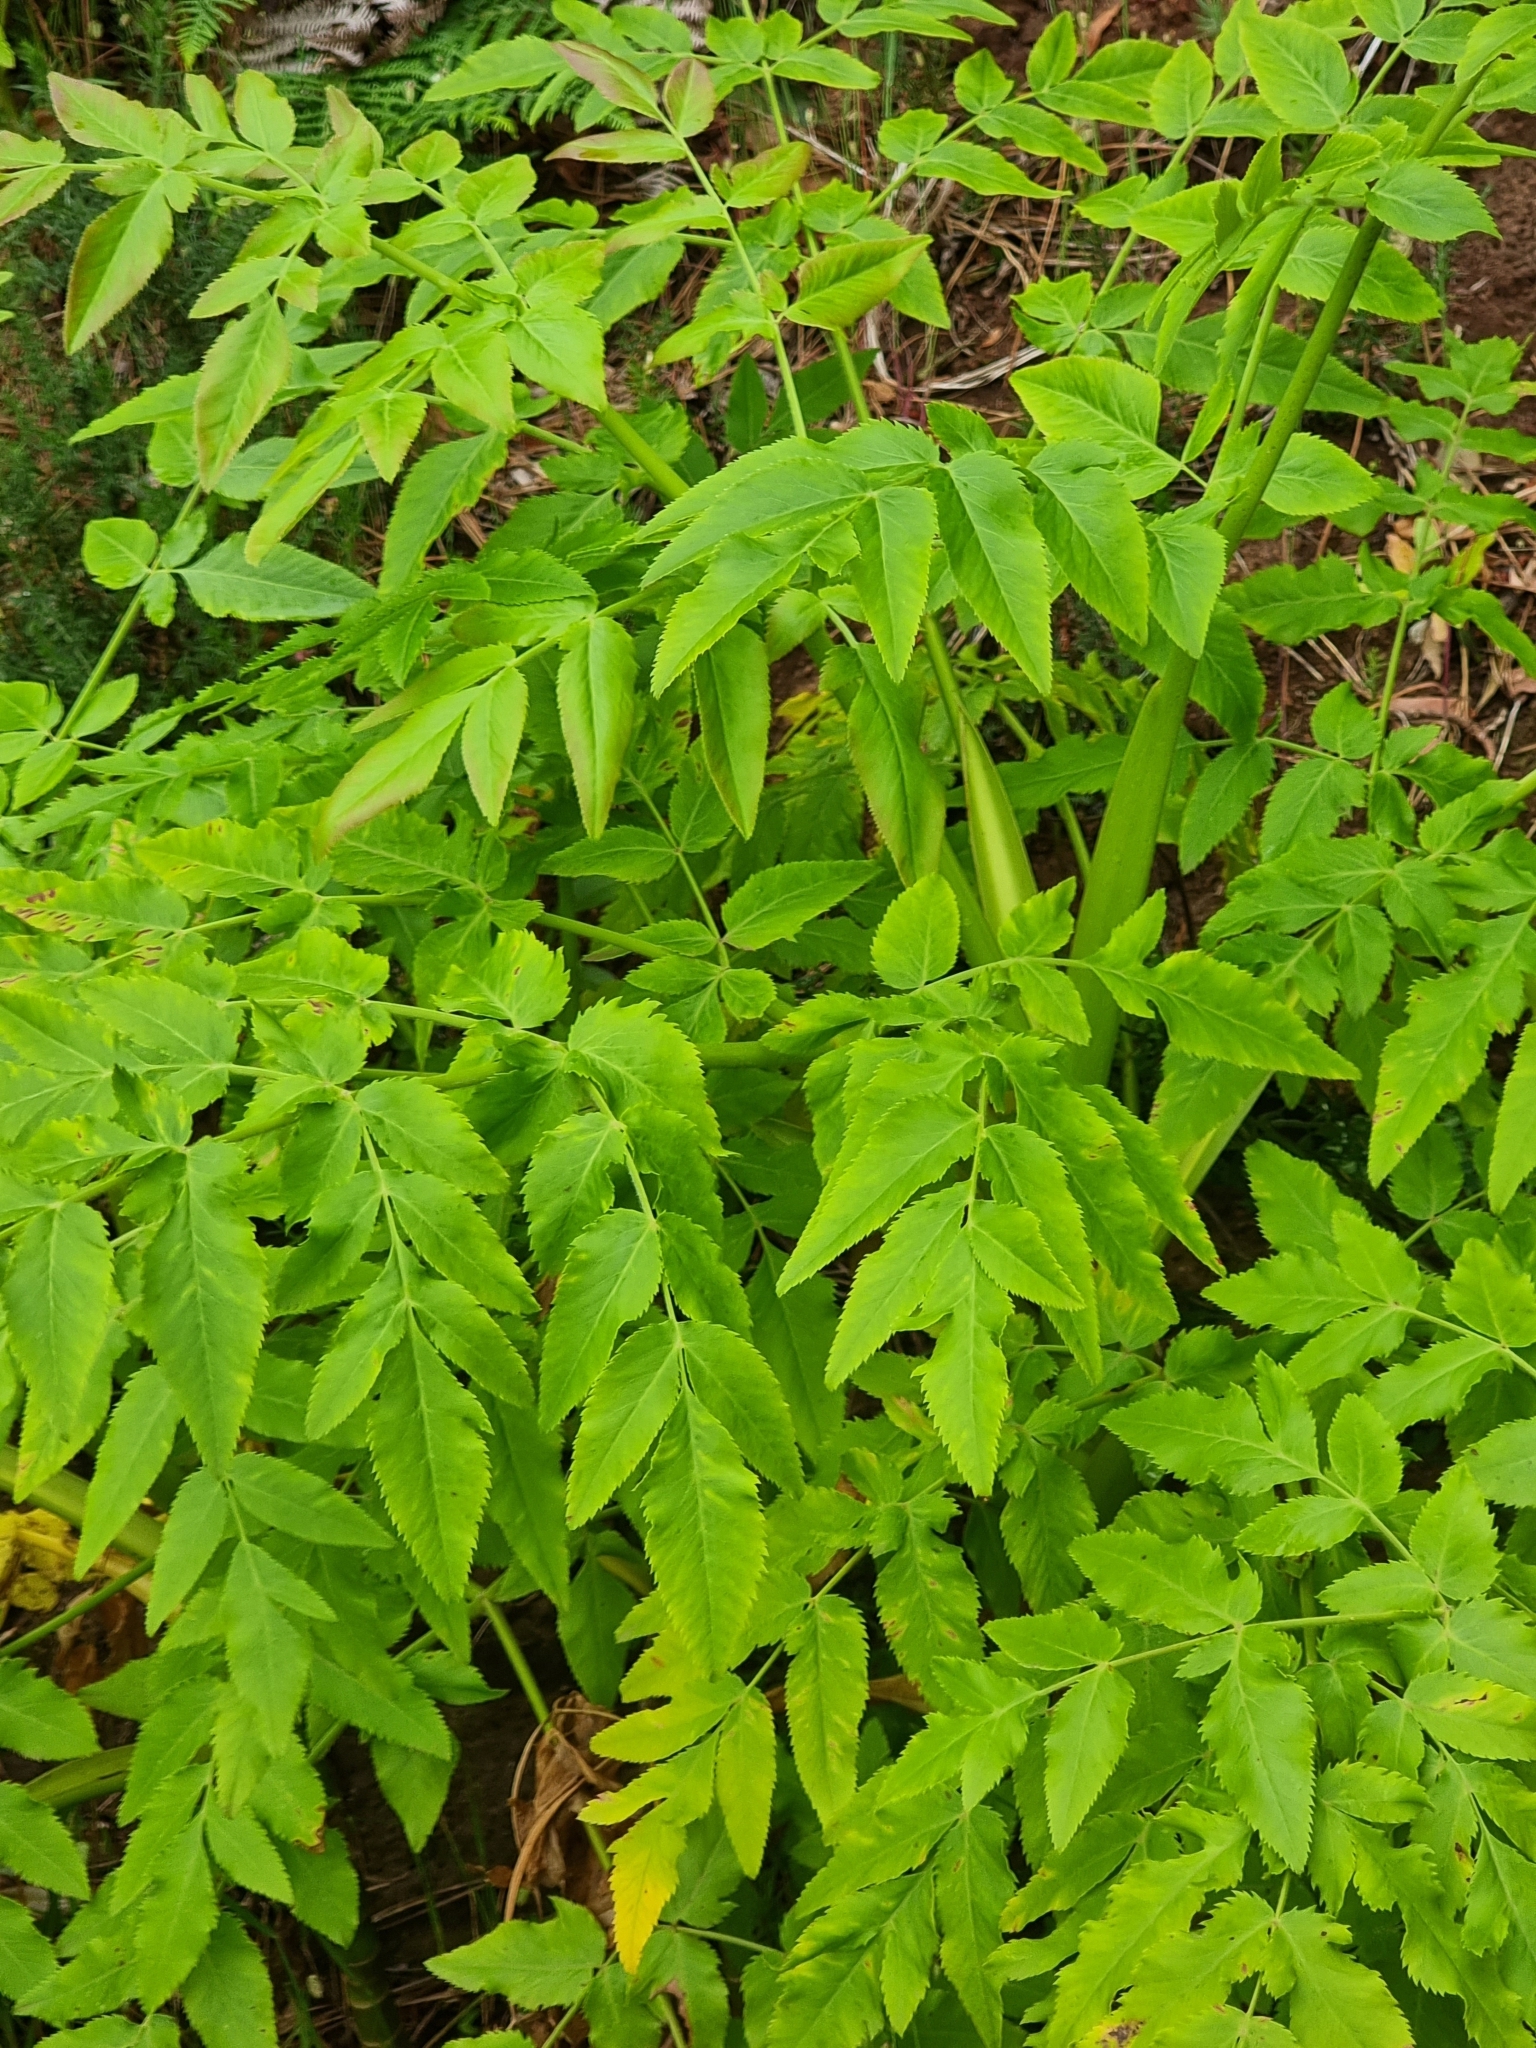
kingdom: Plantae
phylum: Tracheophyta
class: Magnoliopsida
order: Apiales
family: Apiaceae
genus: Daucus
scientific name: Daucus decipiens
